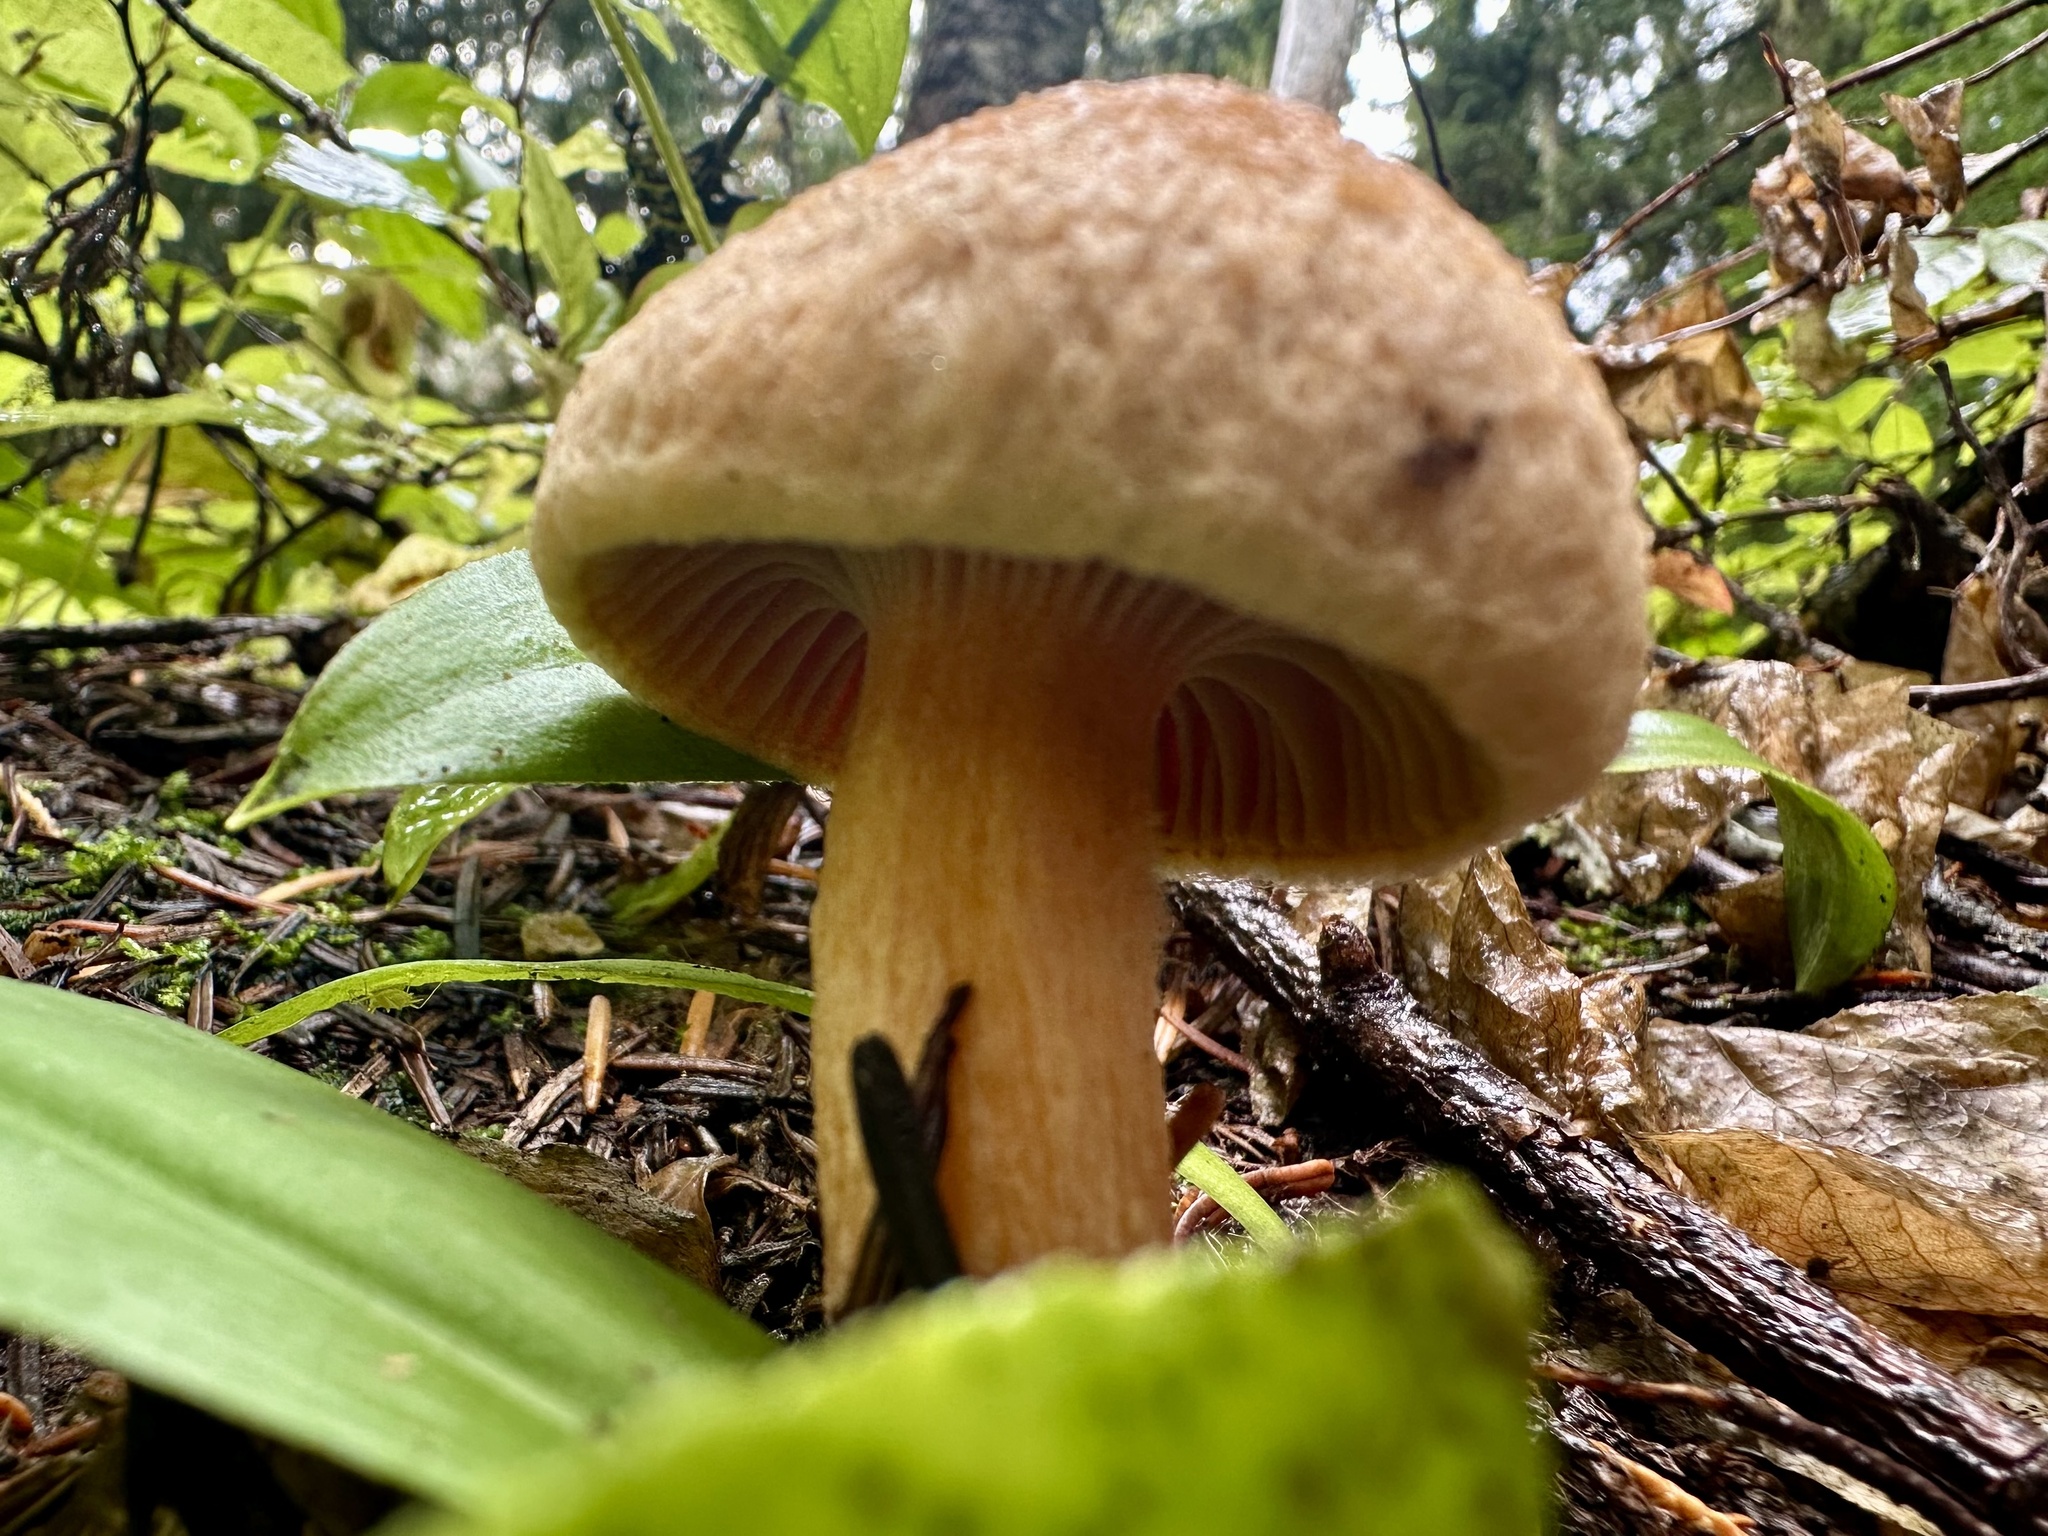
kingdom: Fungi
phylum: Basidiomycota
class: Agaricomycetes
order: Boletales
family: Gomphidiaceae
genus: Chroogomphus
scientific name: Chroogomphus tomentosus
